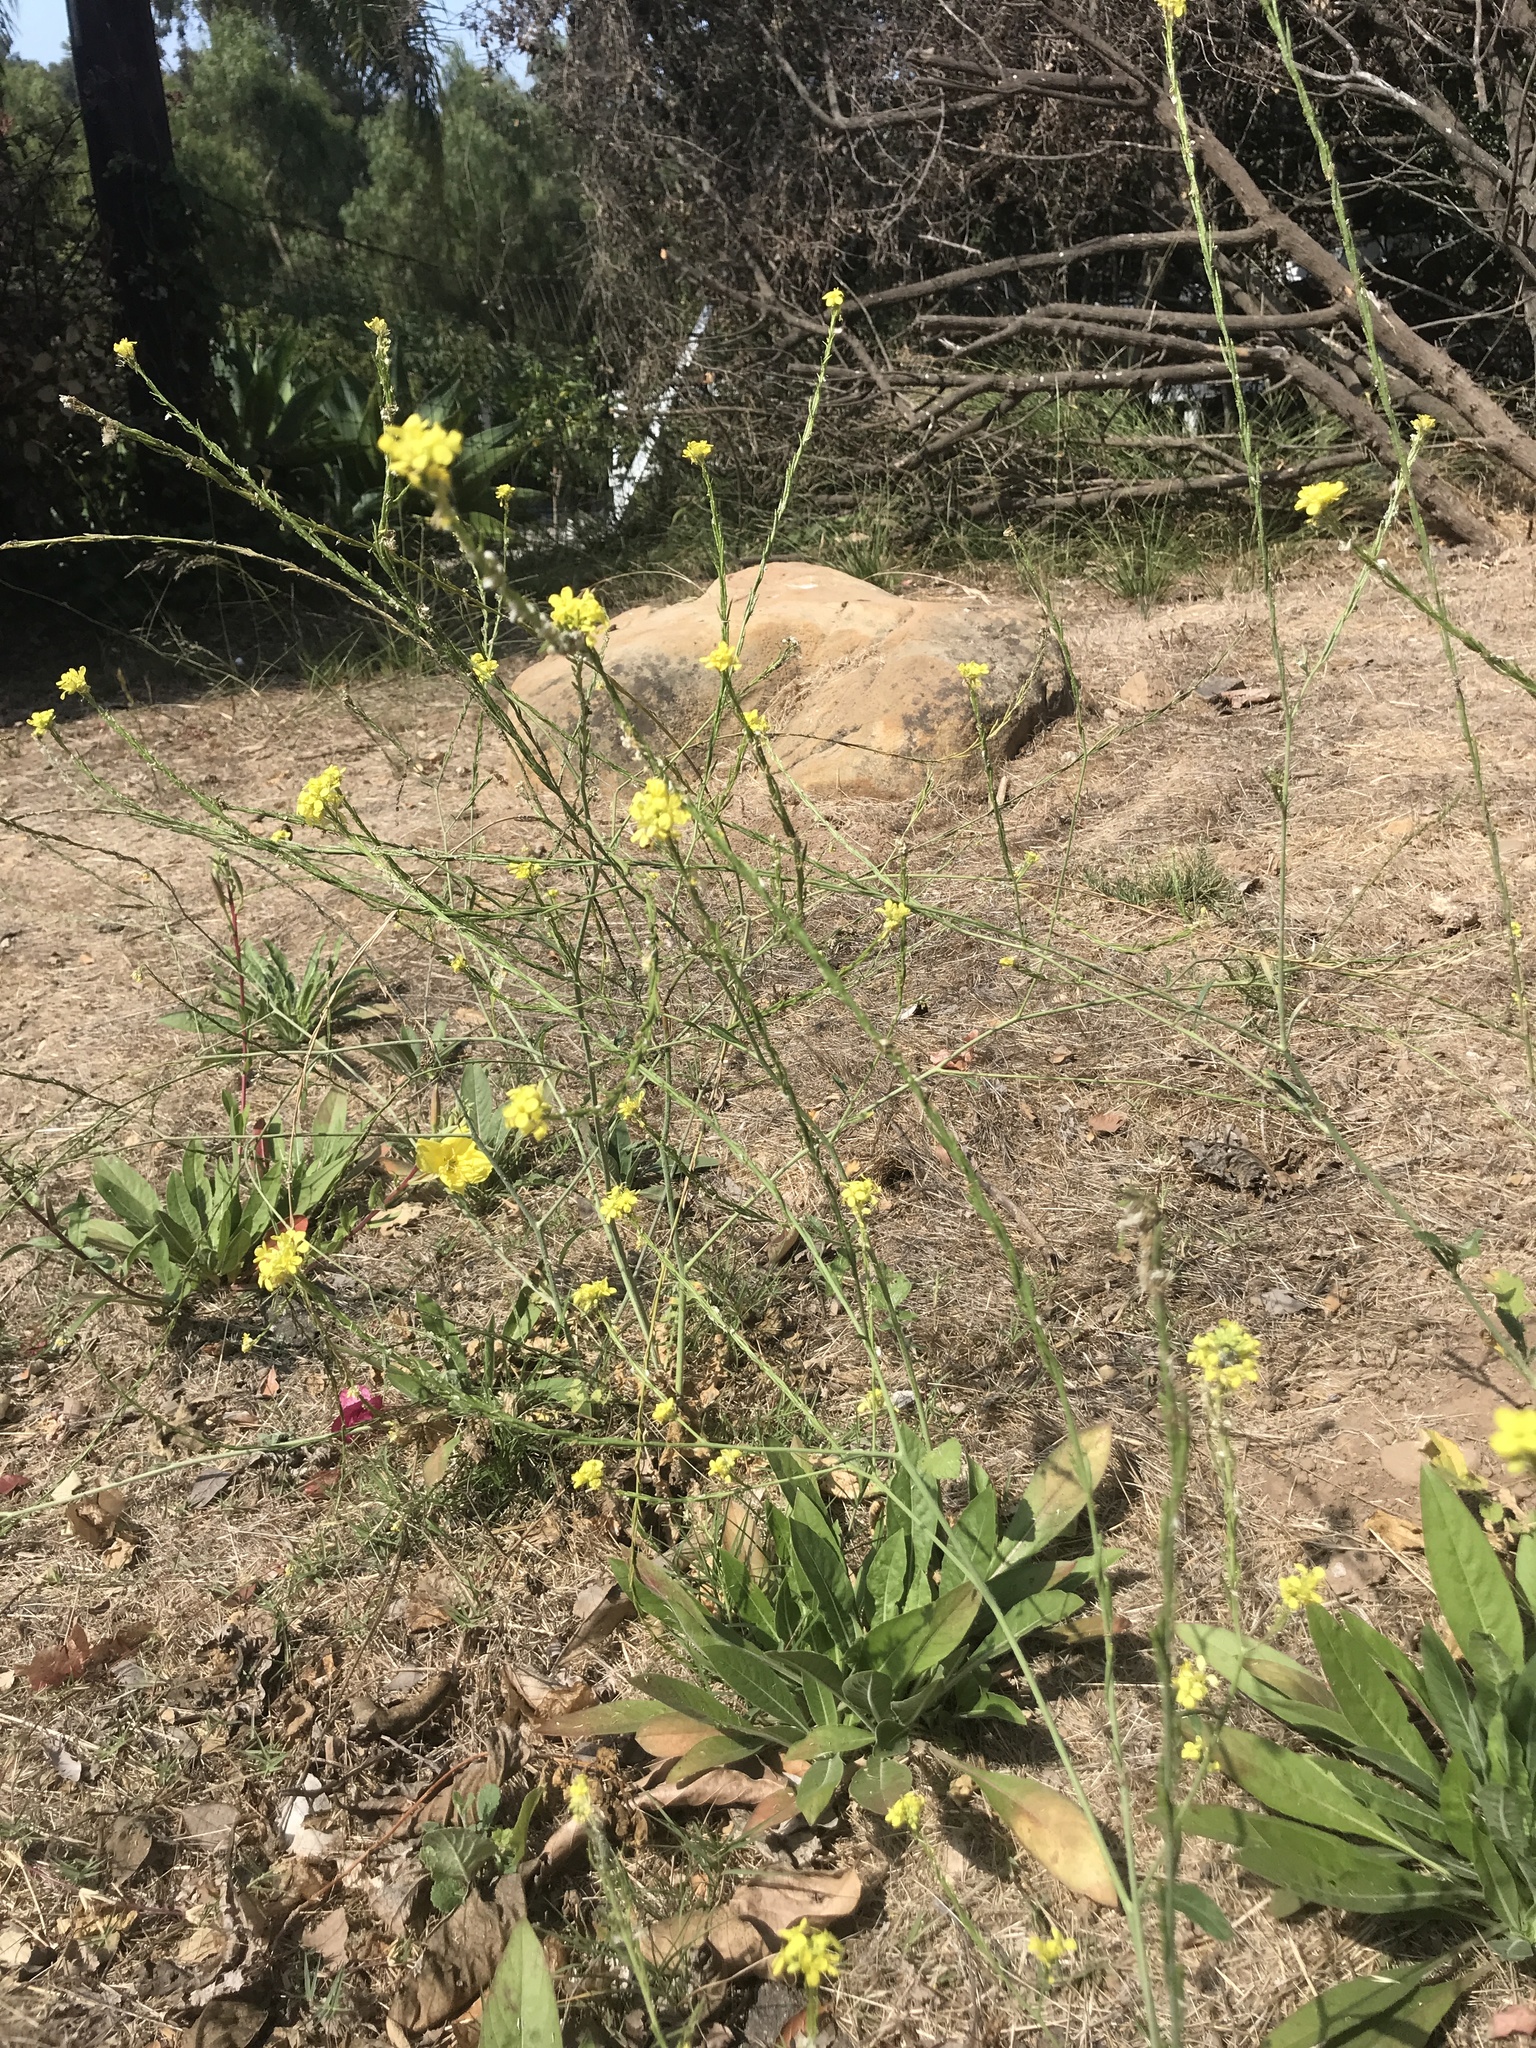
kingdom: Plantae
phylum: Tracheophyta
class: Magnoliopsida
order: Brassicales
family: Brassicaceae
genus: Hirschfeldia
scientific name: Hirschfeldia incana
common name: Hoary mustard
